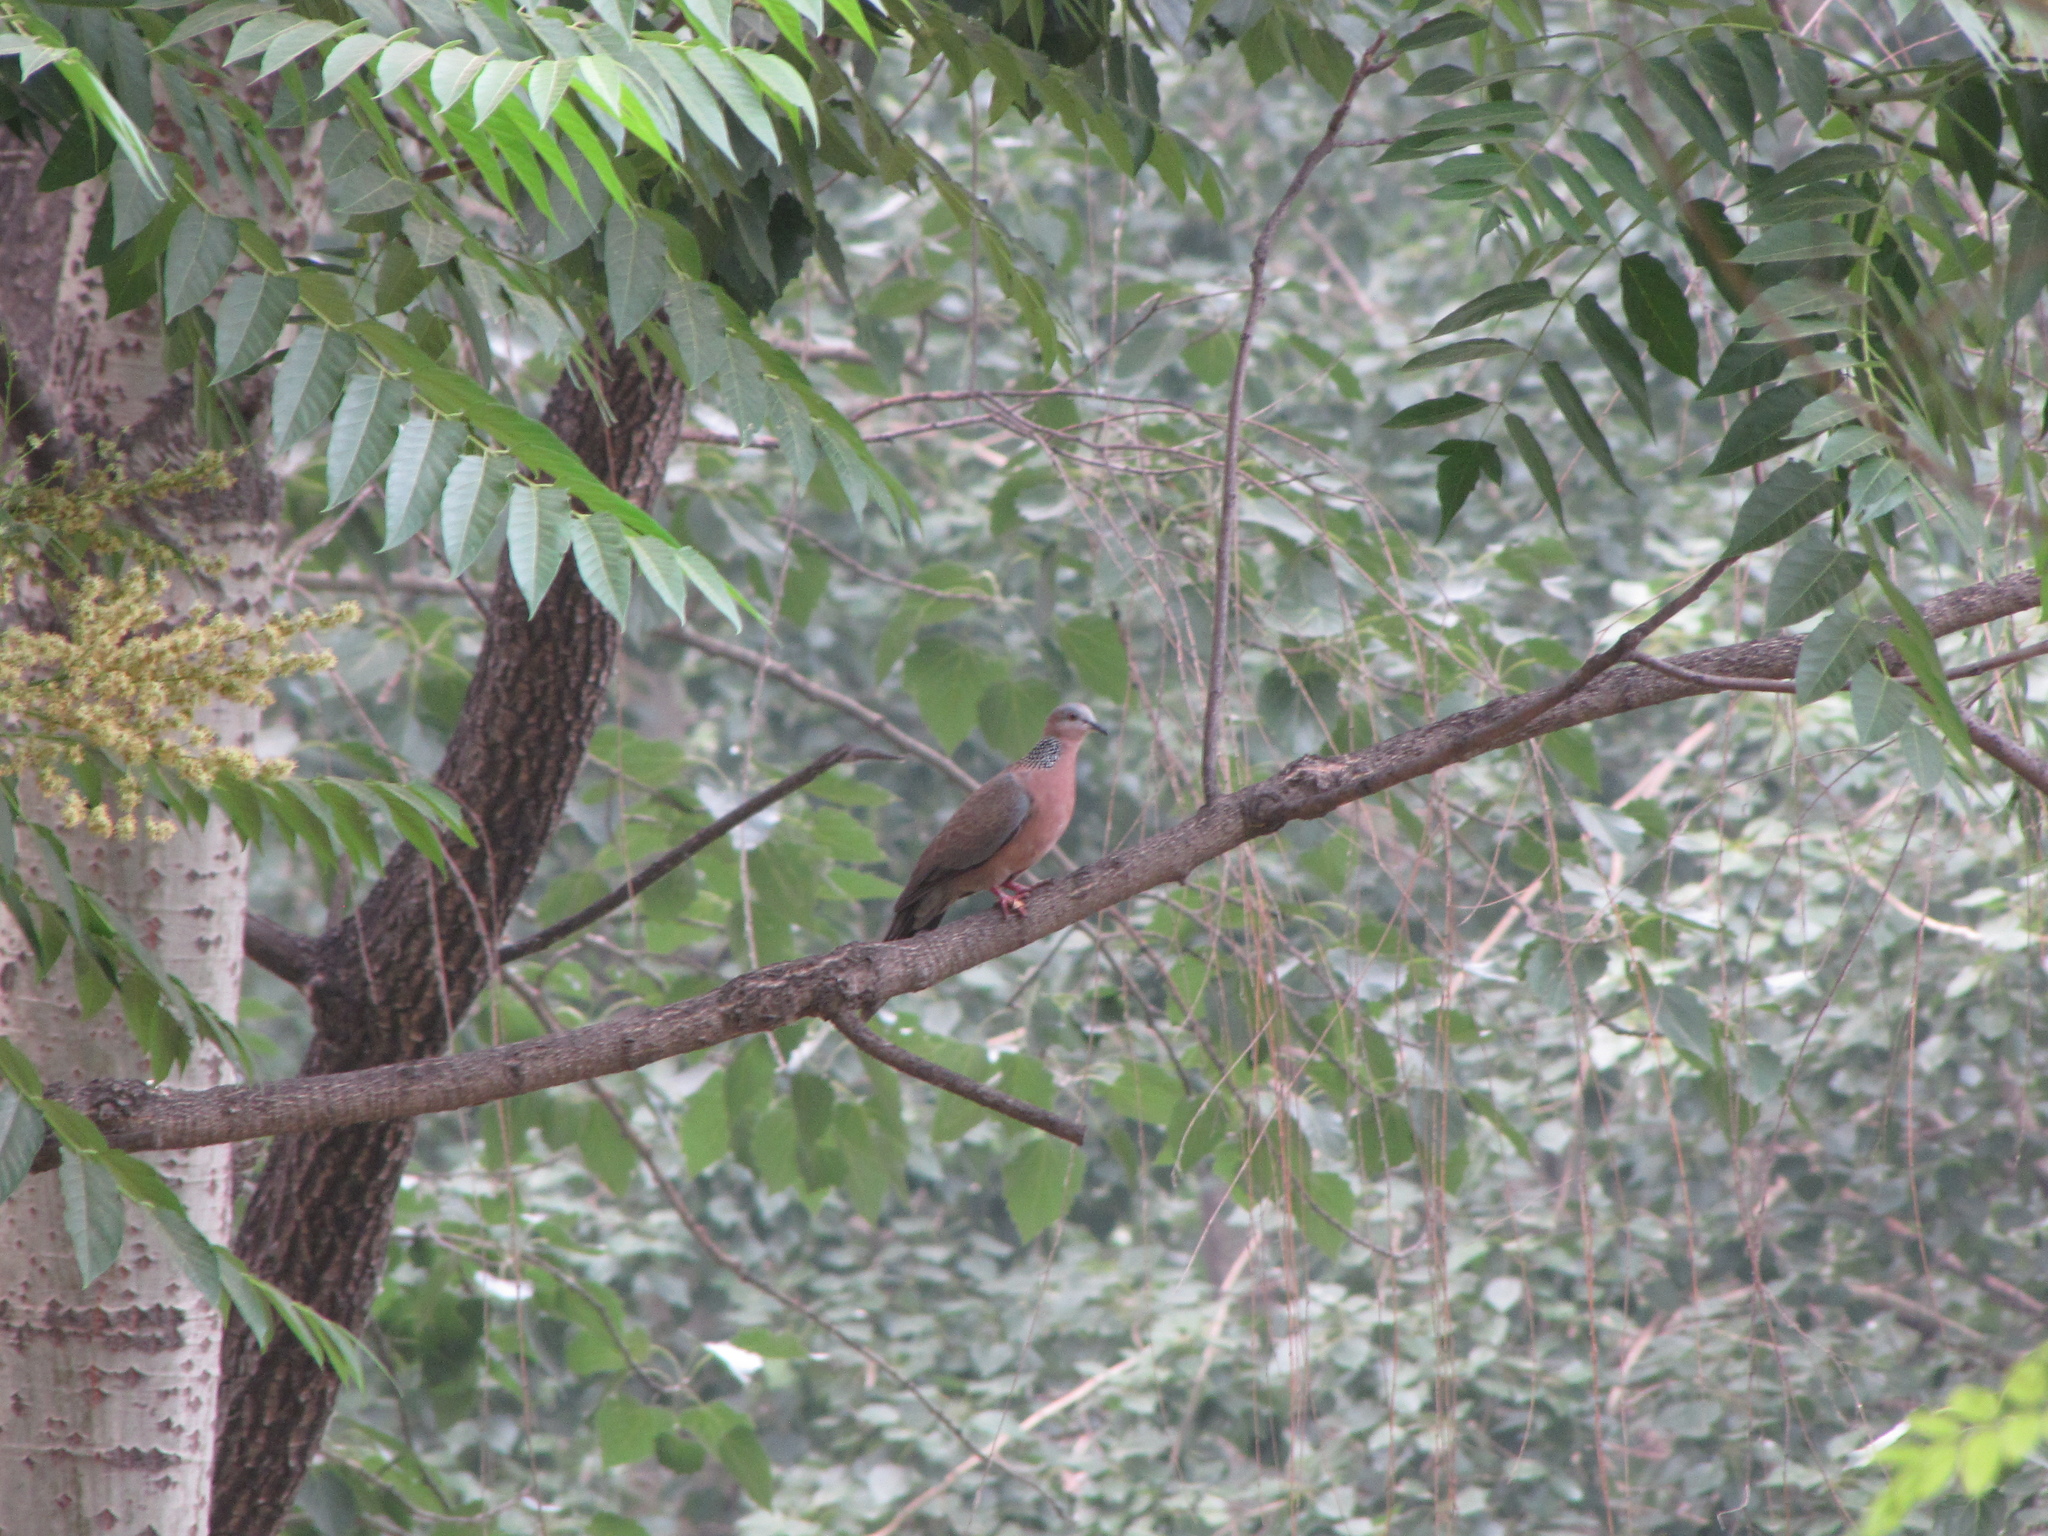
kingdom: Animalia
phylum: Chordata
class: Aves
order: Columbiformes
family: Columbidae
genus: Spilopelia
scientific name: Spilopelia chinensis
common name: Spotted dove
